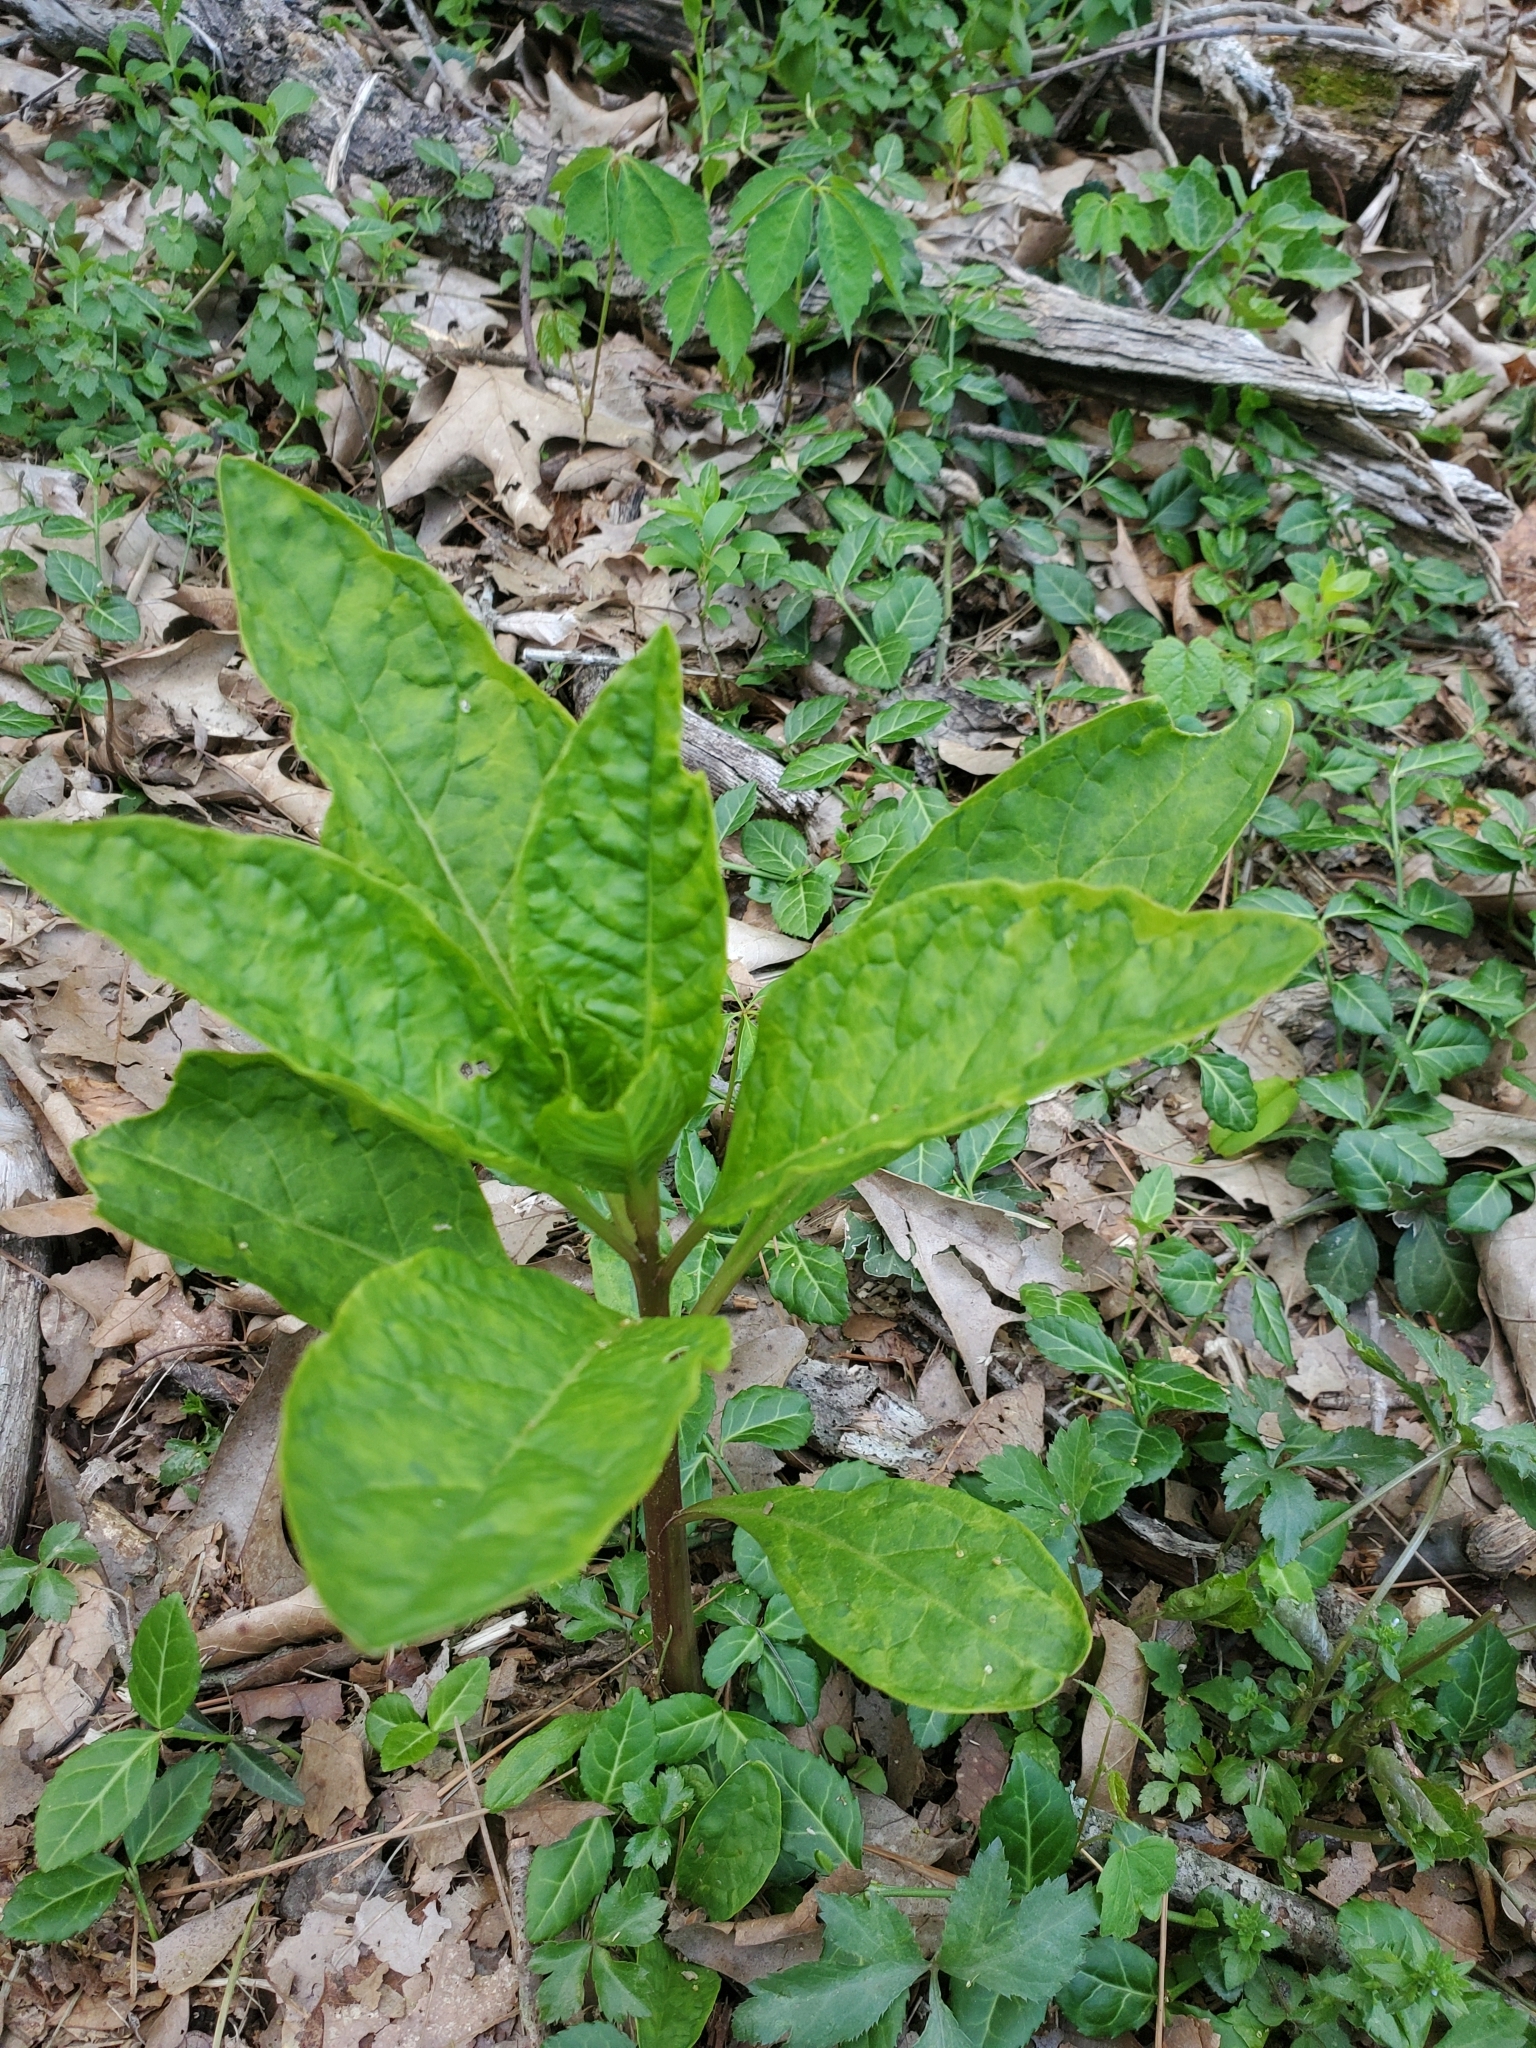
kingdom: Plantae
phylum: Tracheophyta
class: Magnoliopsida
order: Caryophyllales
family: Phytolaccaceae
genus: Phytolacca
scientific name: Phytolacca americana
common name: American pokeweed
